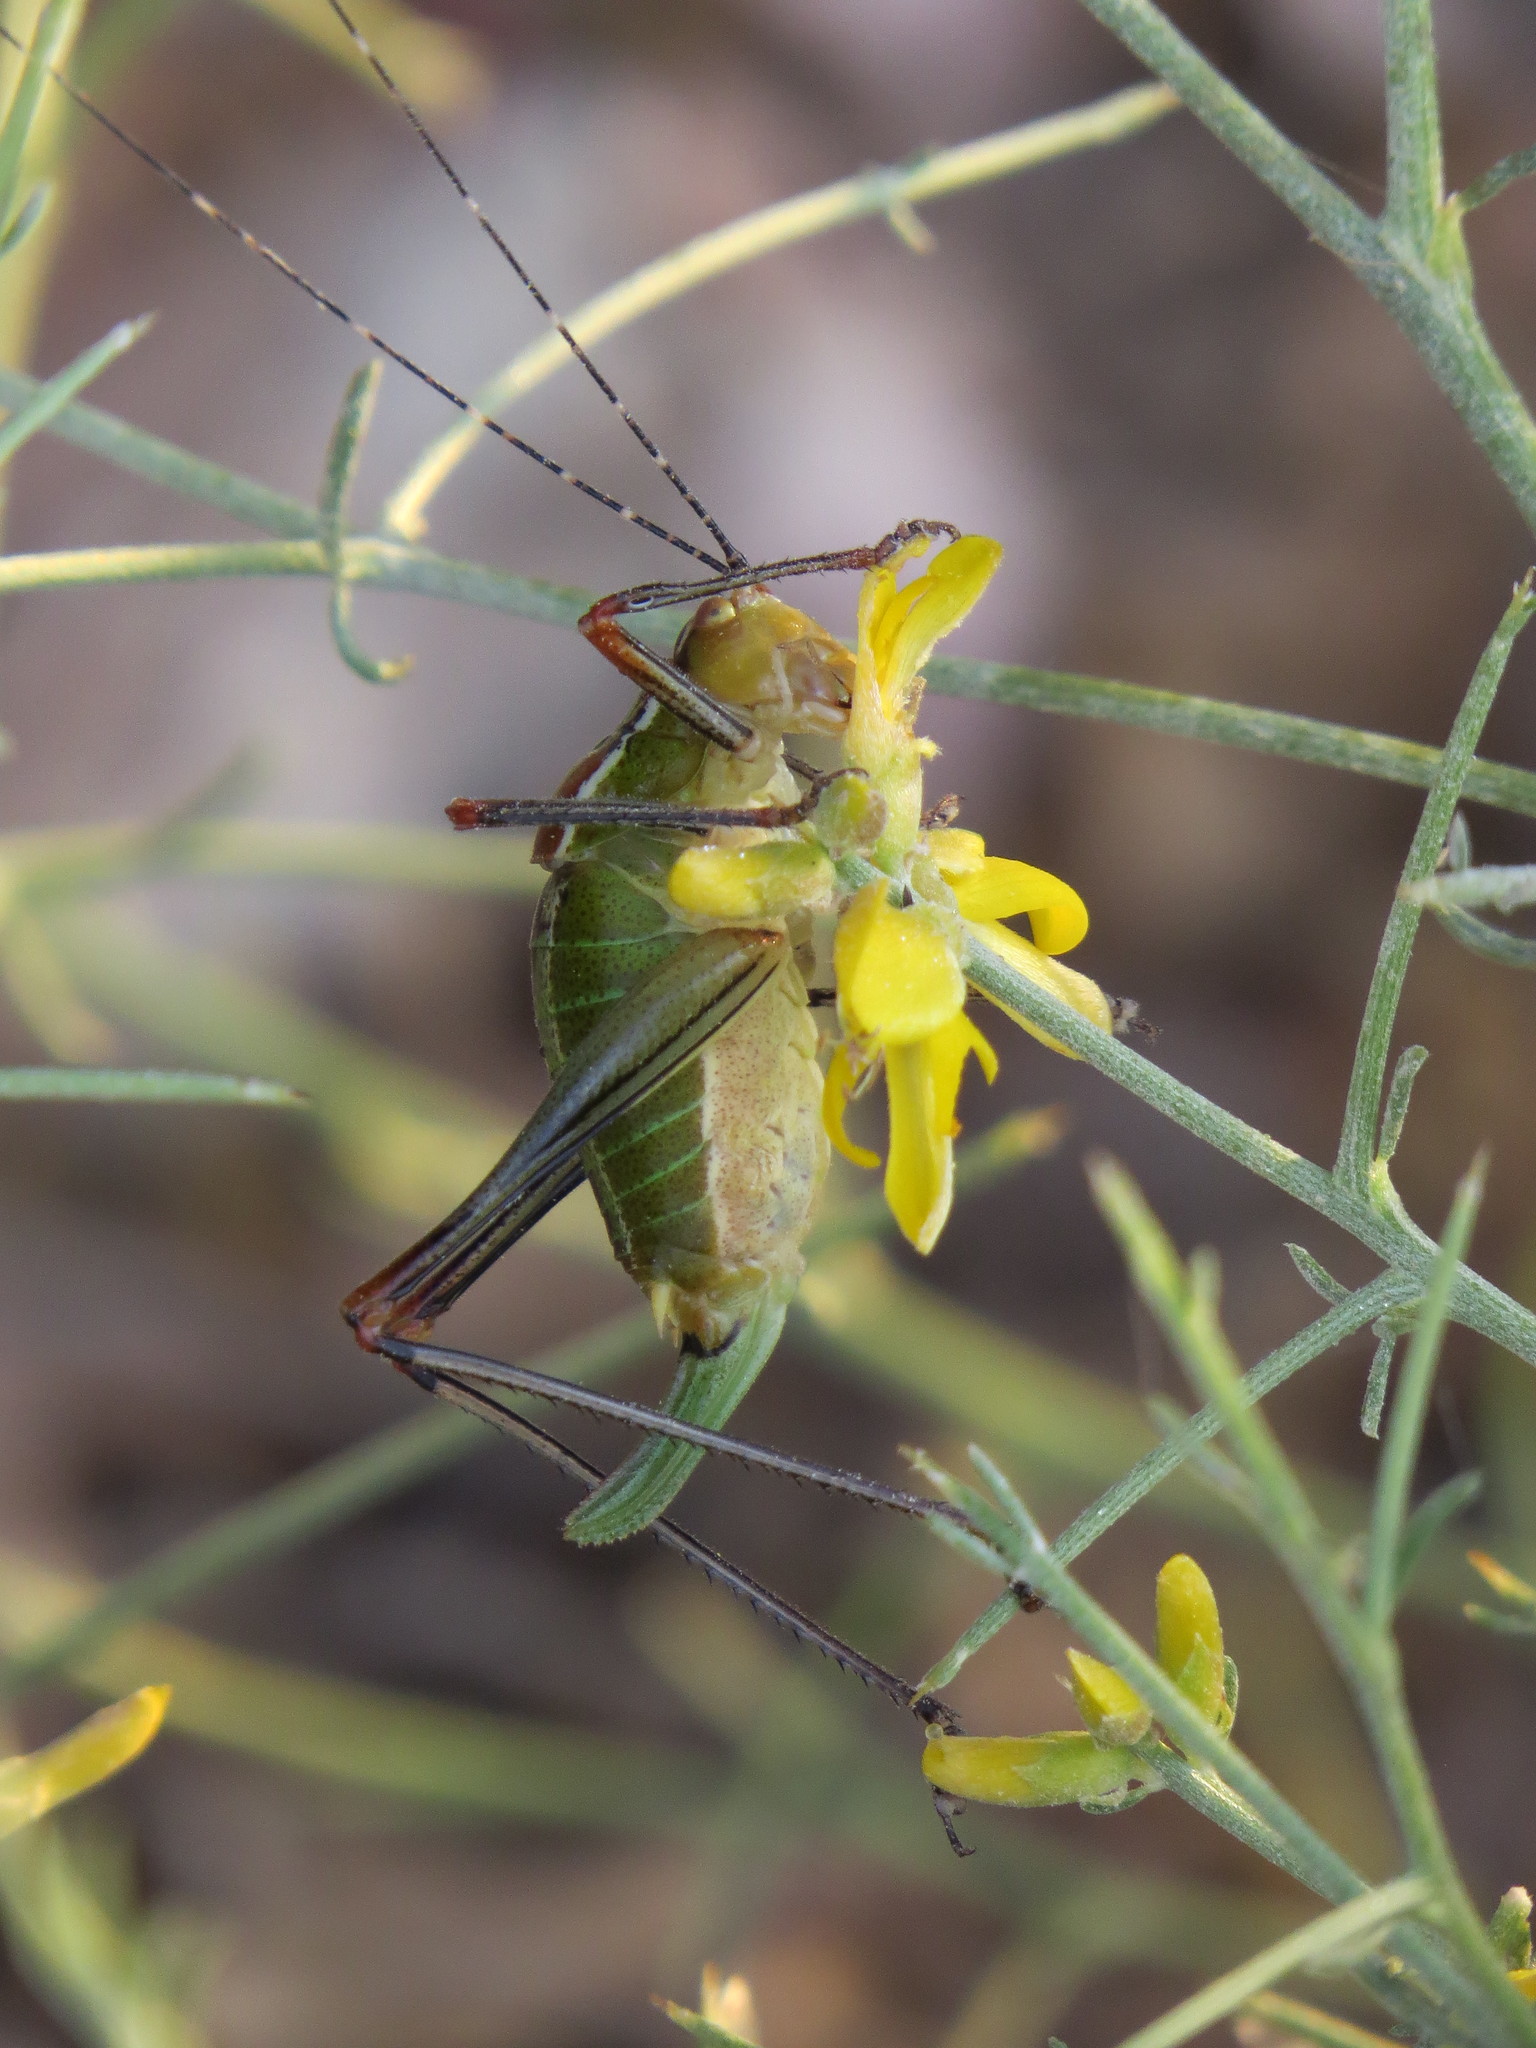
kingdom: Animalia
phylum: Arthropoda
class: Insecta
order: Orthoptera
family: Tettigoniidae
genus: Poecilimon
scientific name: Poecilimon inflatus
